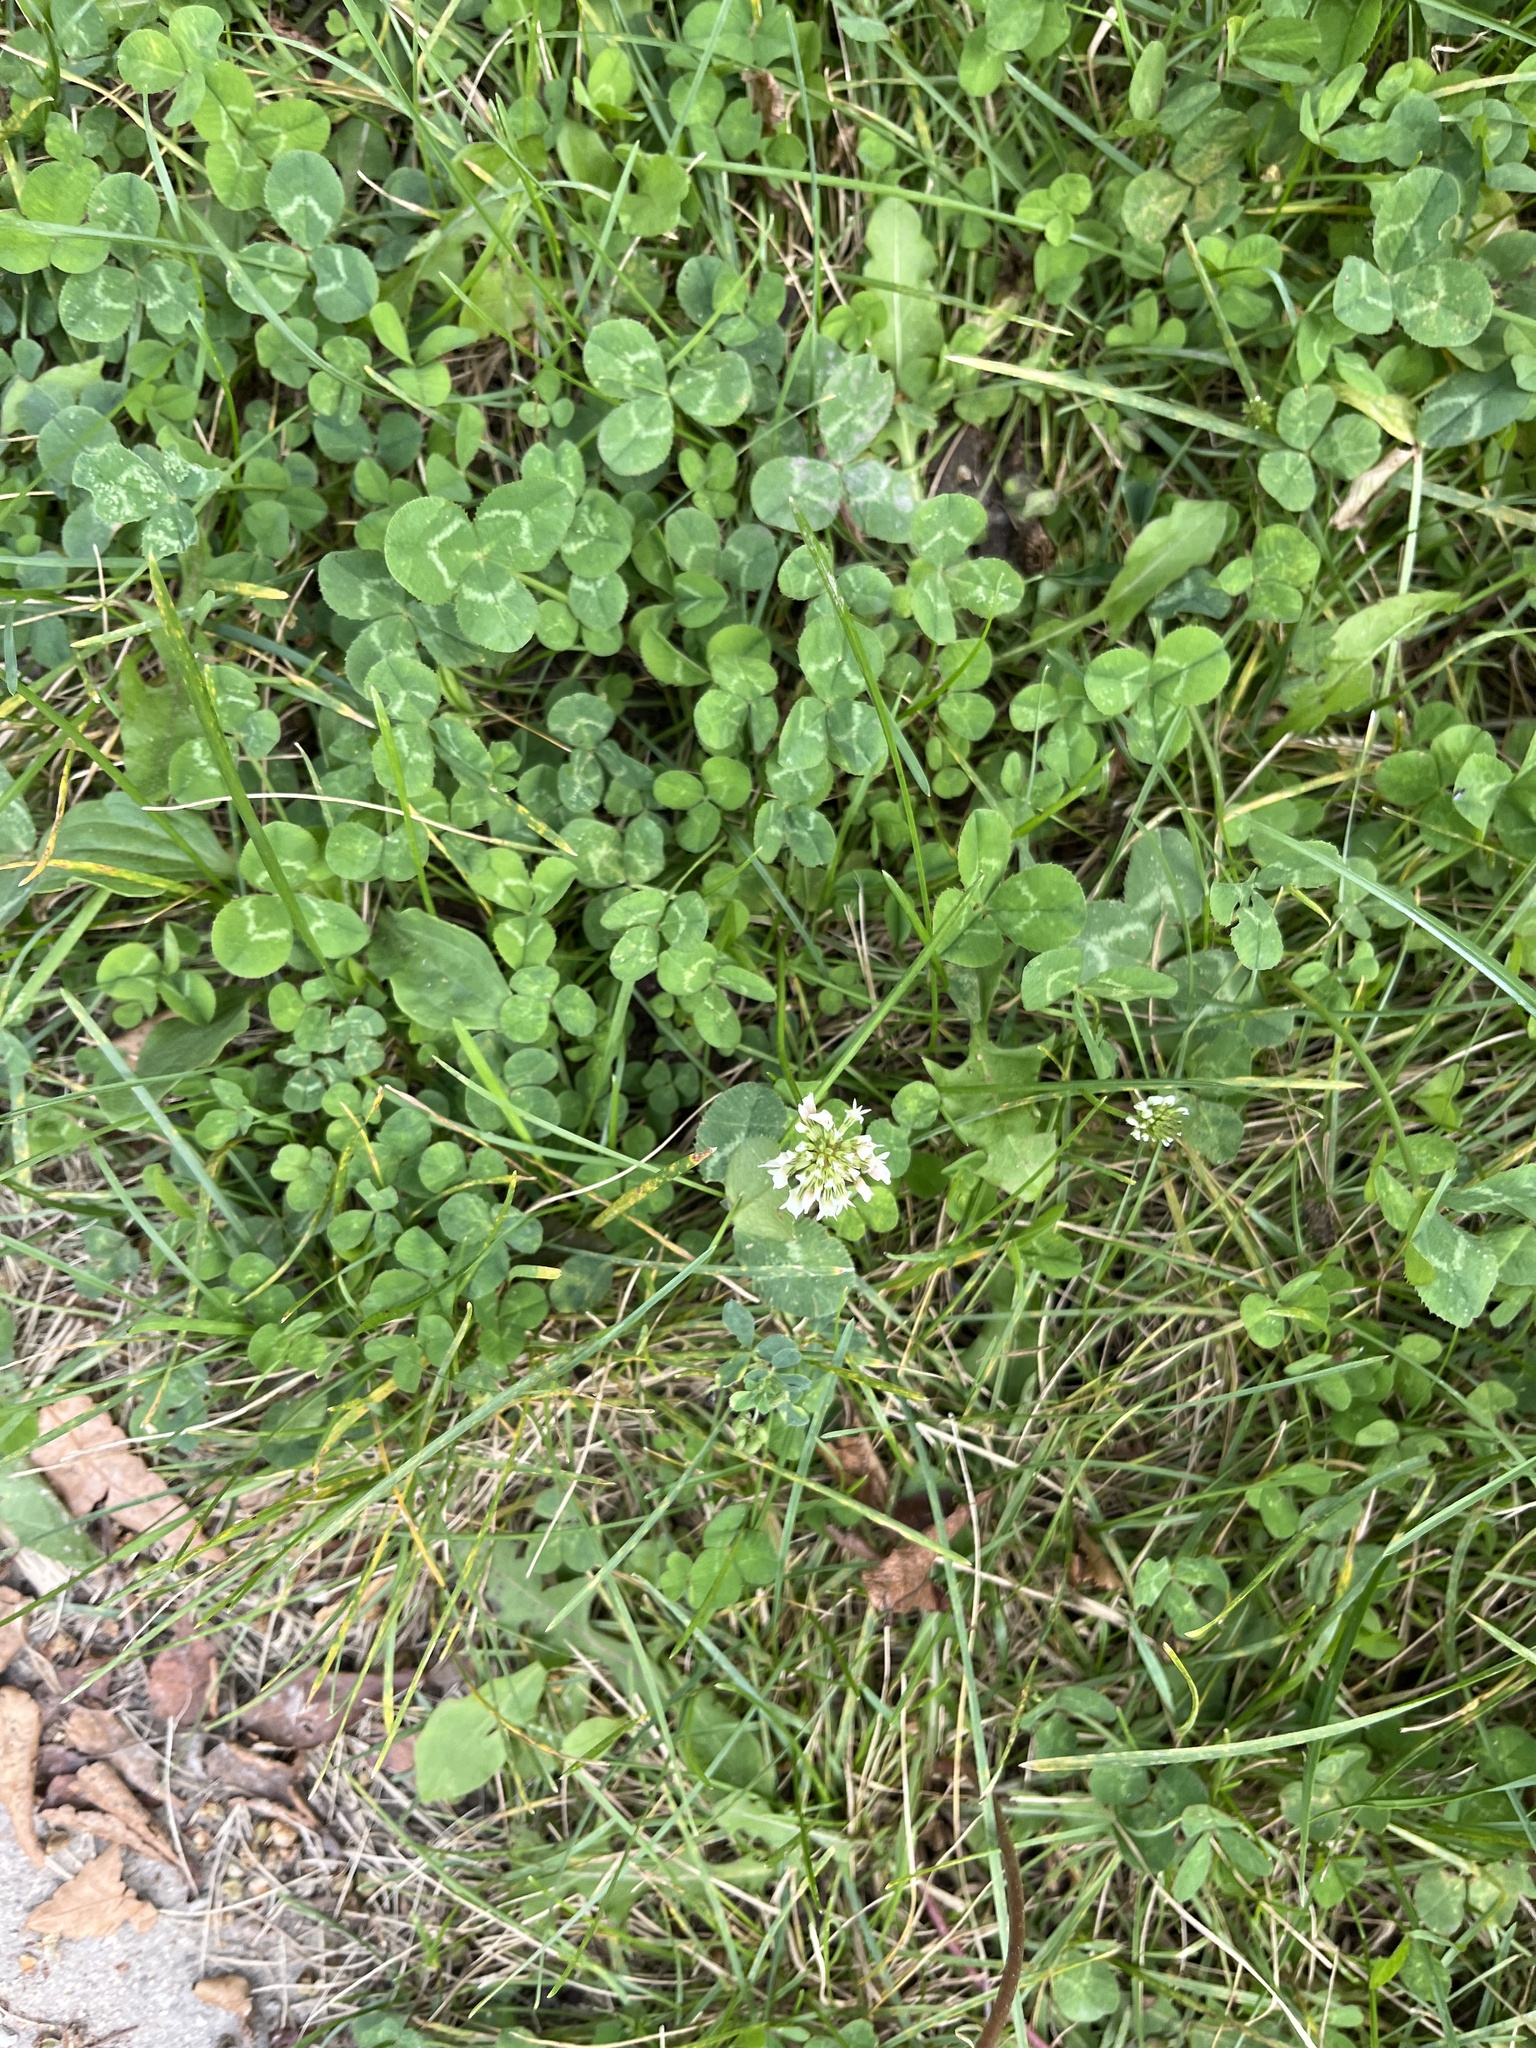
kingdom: Plantae
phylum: Tracheophyta
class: Magnoliopsida
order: Fabales
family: Fabaceae
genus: Trifolium
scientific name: Trifolium repens
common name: White clover
